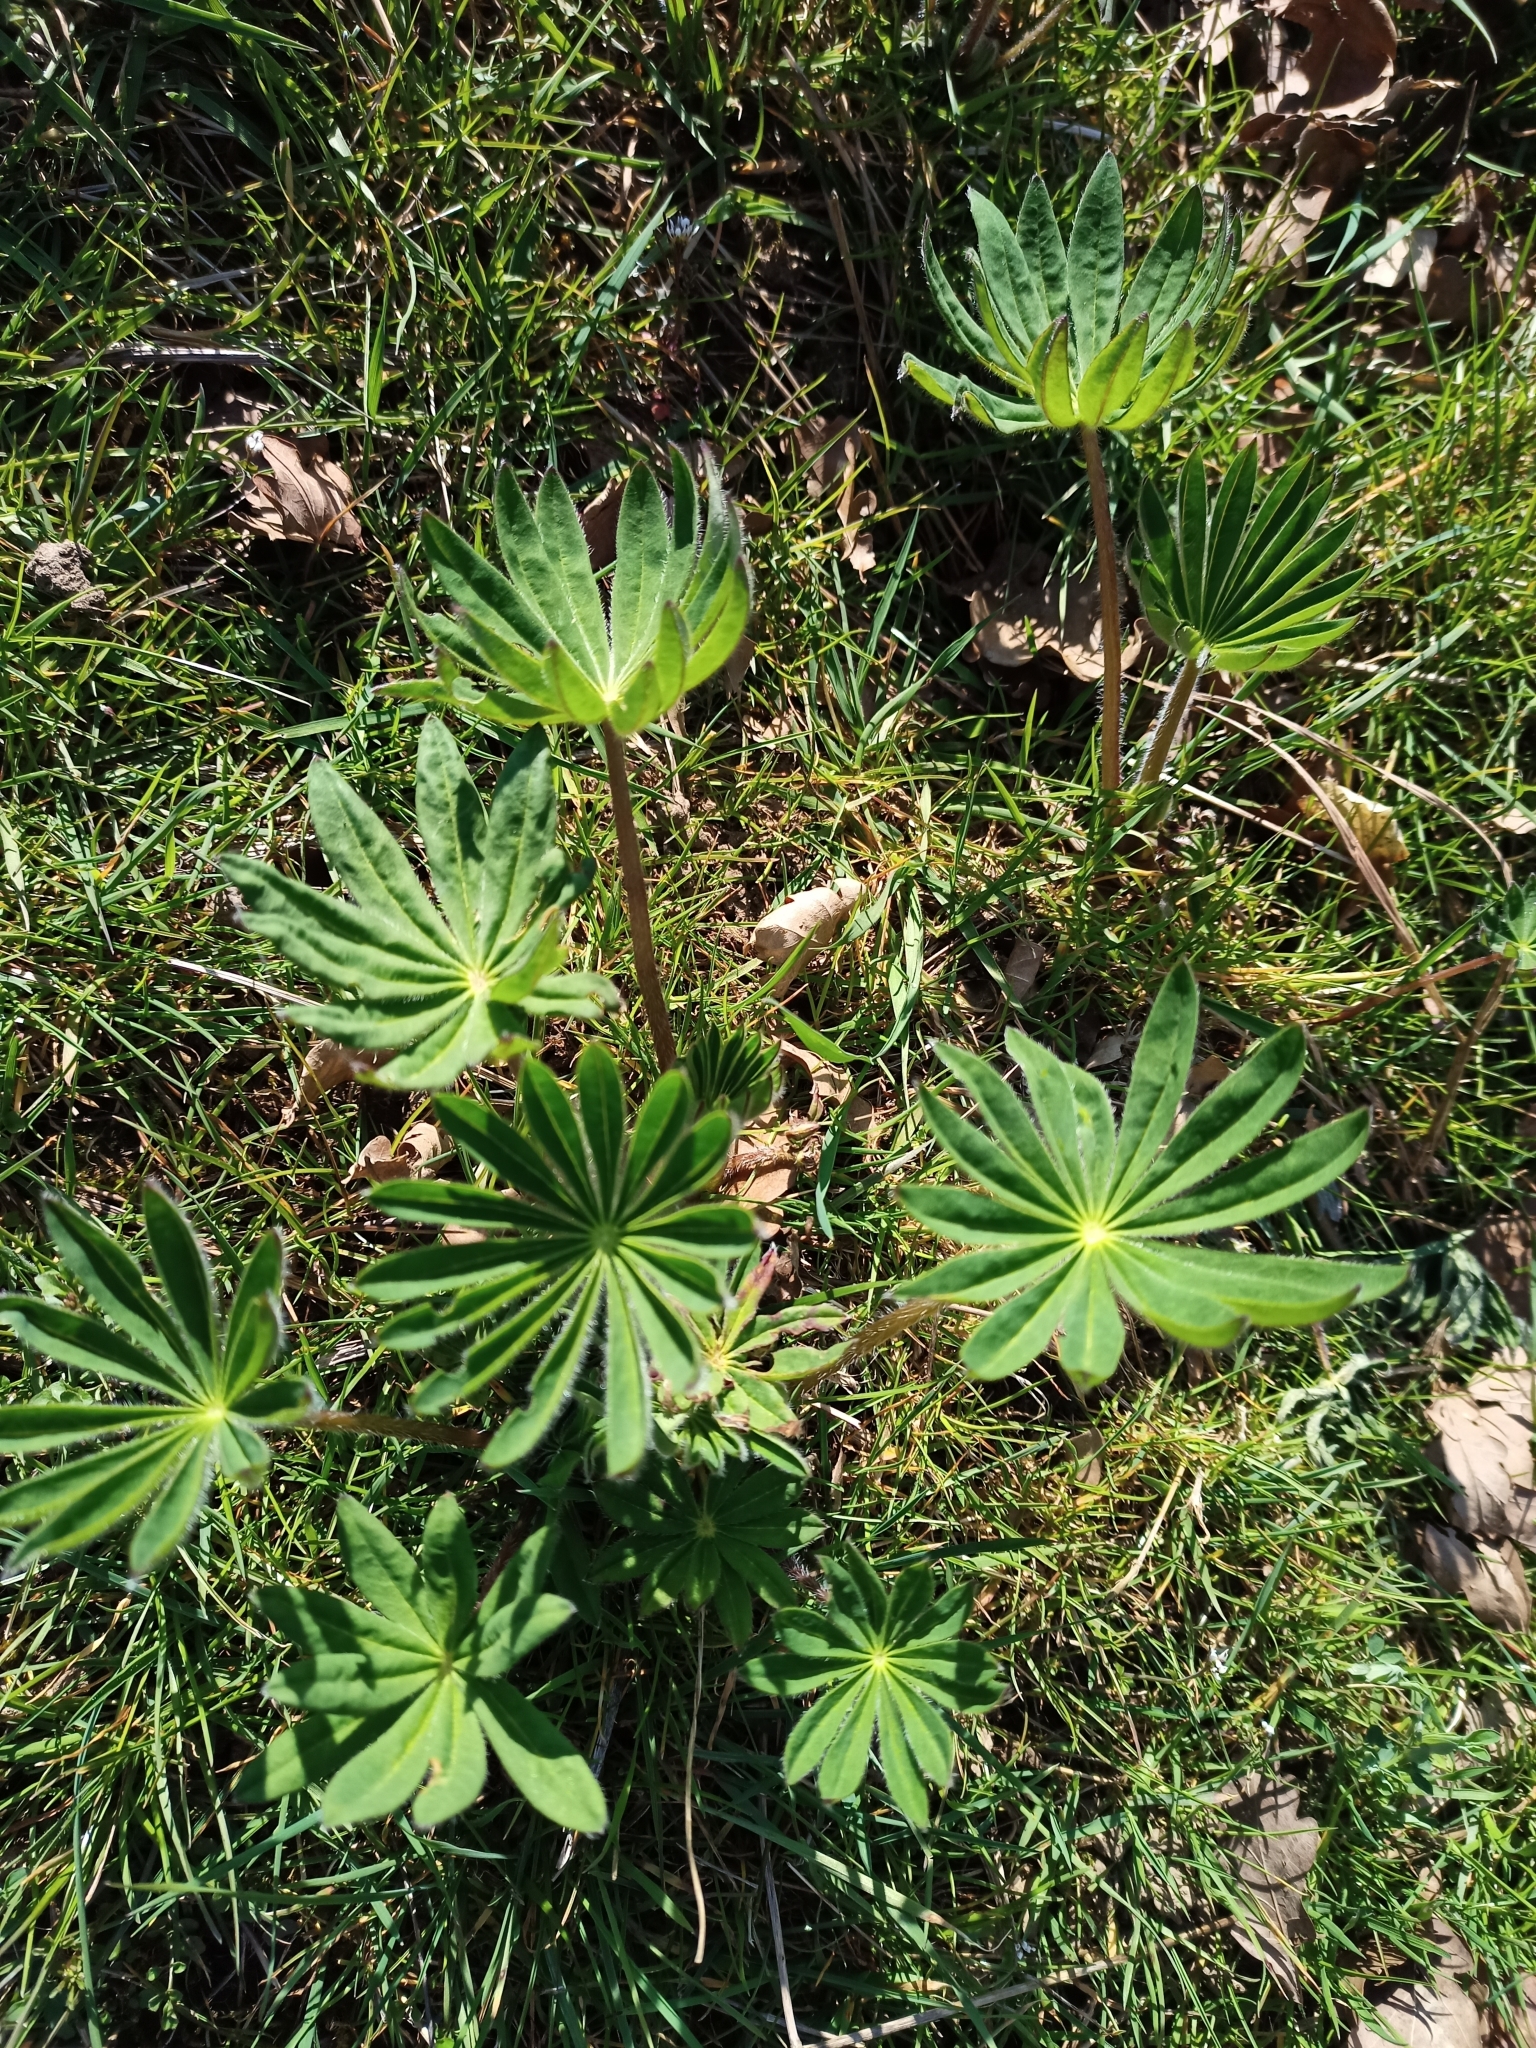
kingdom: Plantae
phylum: Tracheophyta
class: Magnoliopsida
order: Fabales
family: Fabaceae
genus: Lupinus
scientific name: Lupinus polyphyllus
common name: Garden lupin
